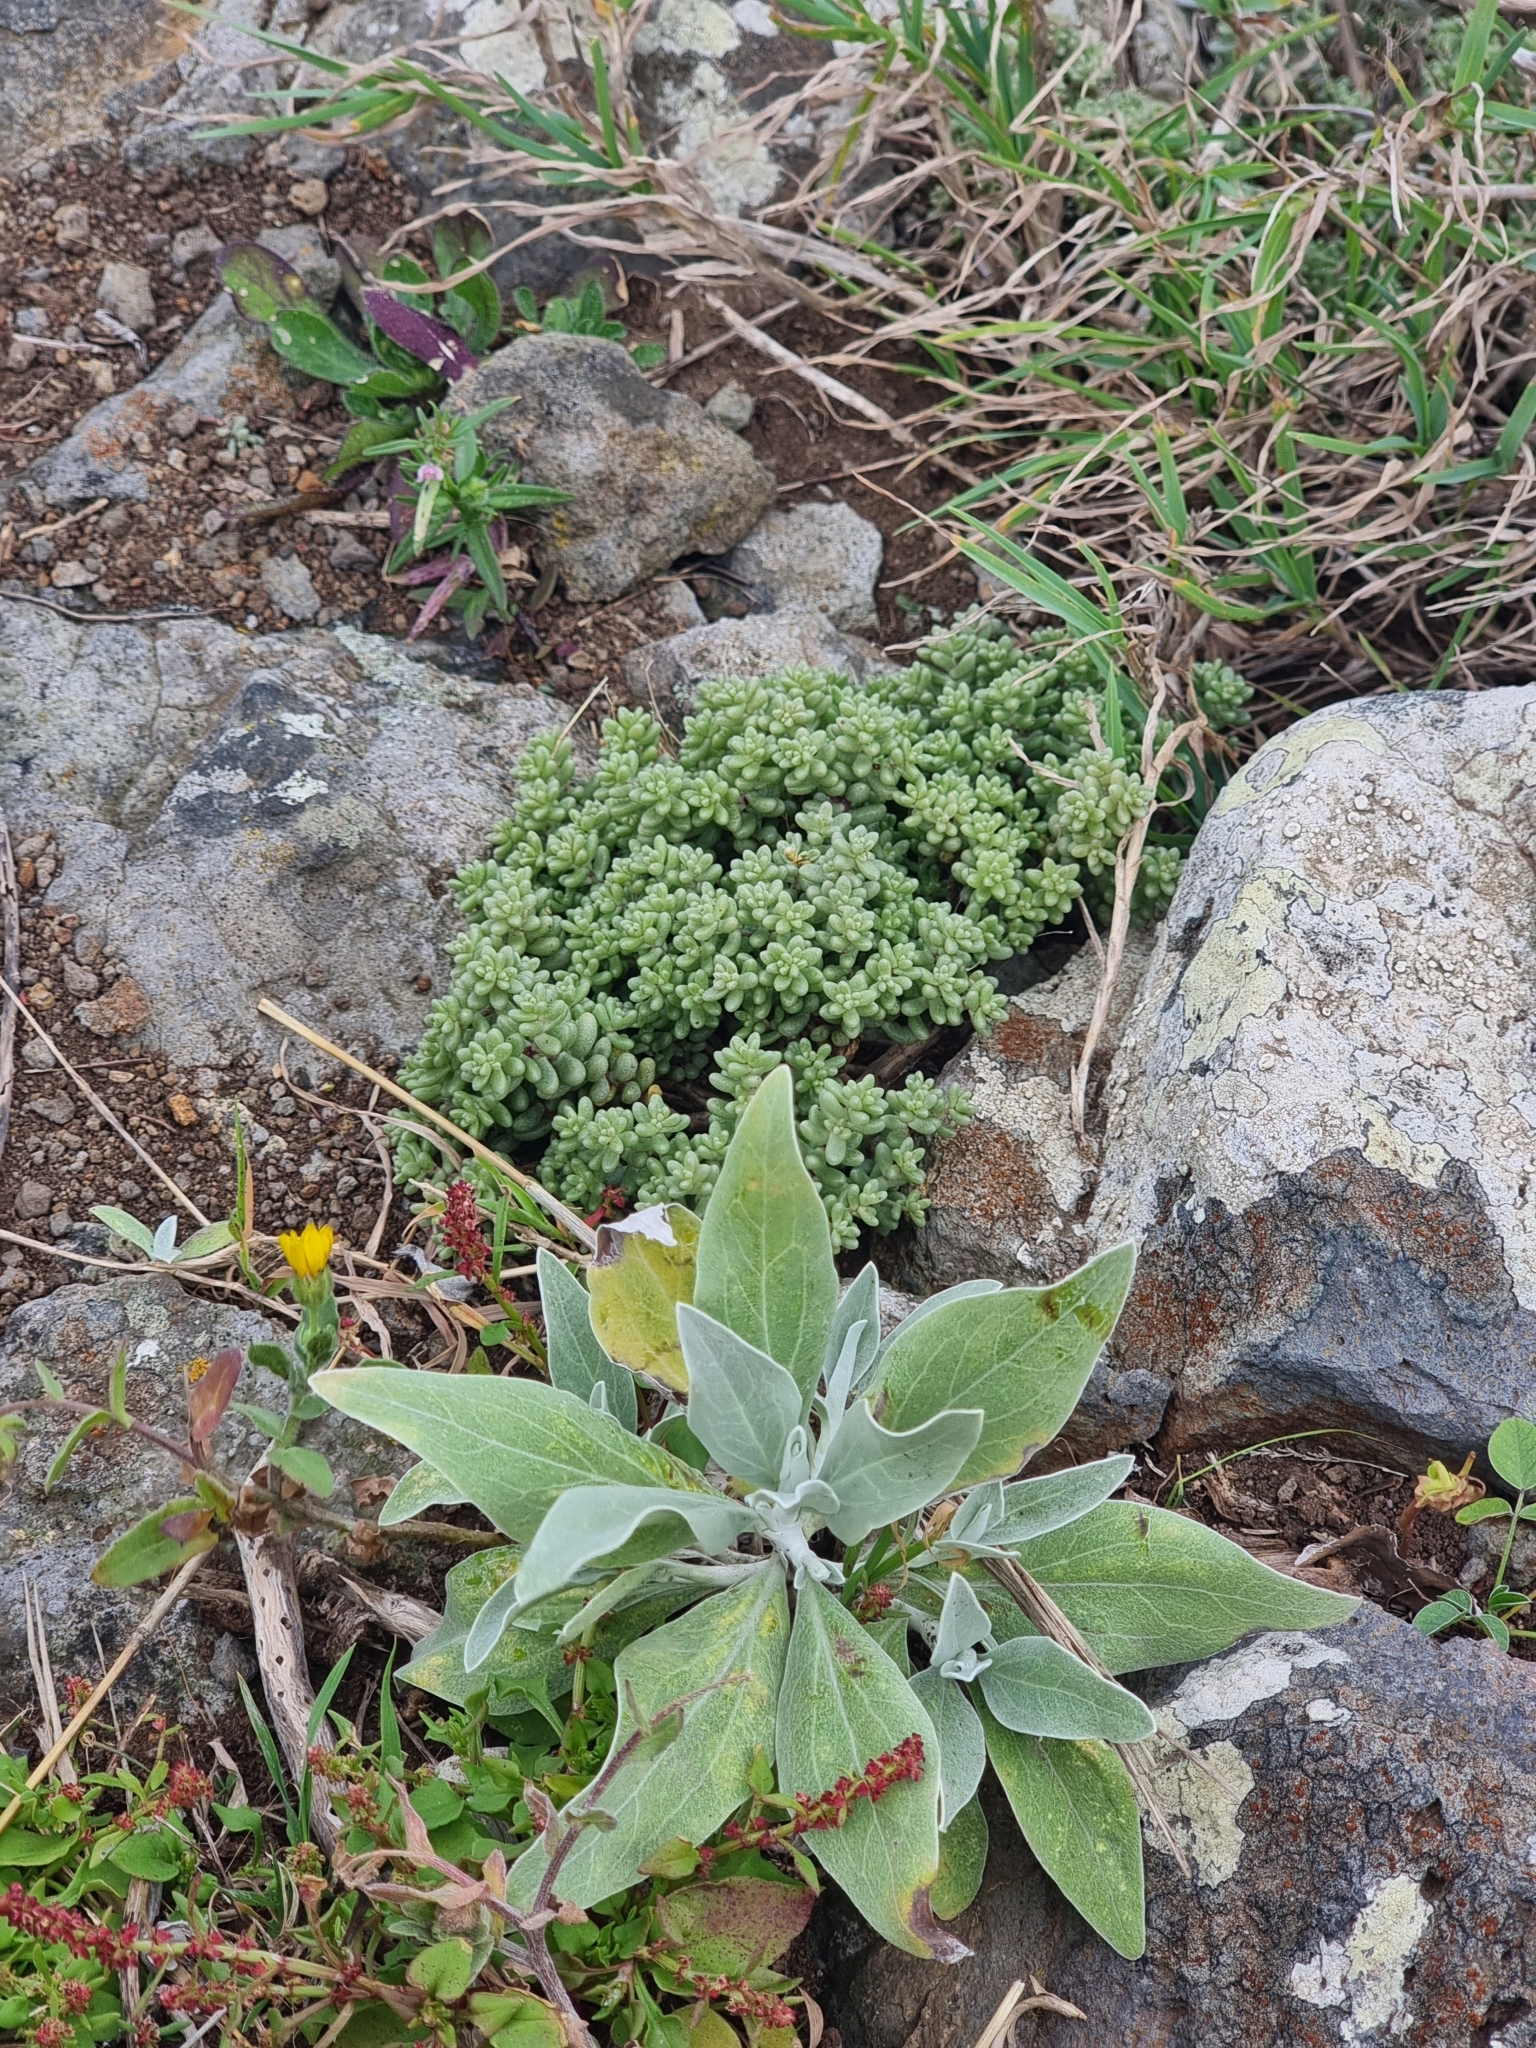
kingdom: Plantae
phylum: Tracheophyta
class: Magnoliopsida
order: Saxifragales
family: Crassulaceae
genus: Sedum
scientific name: Sedum nudum
